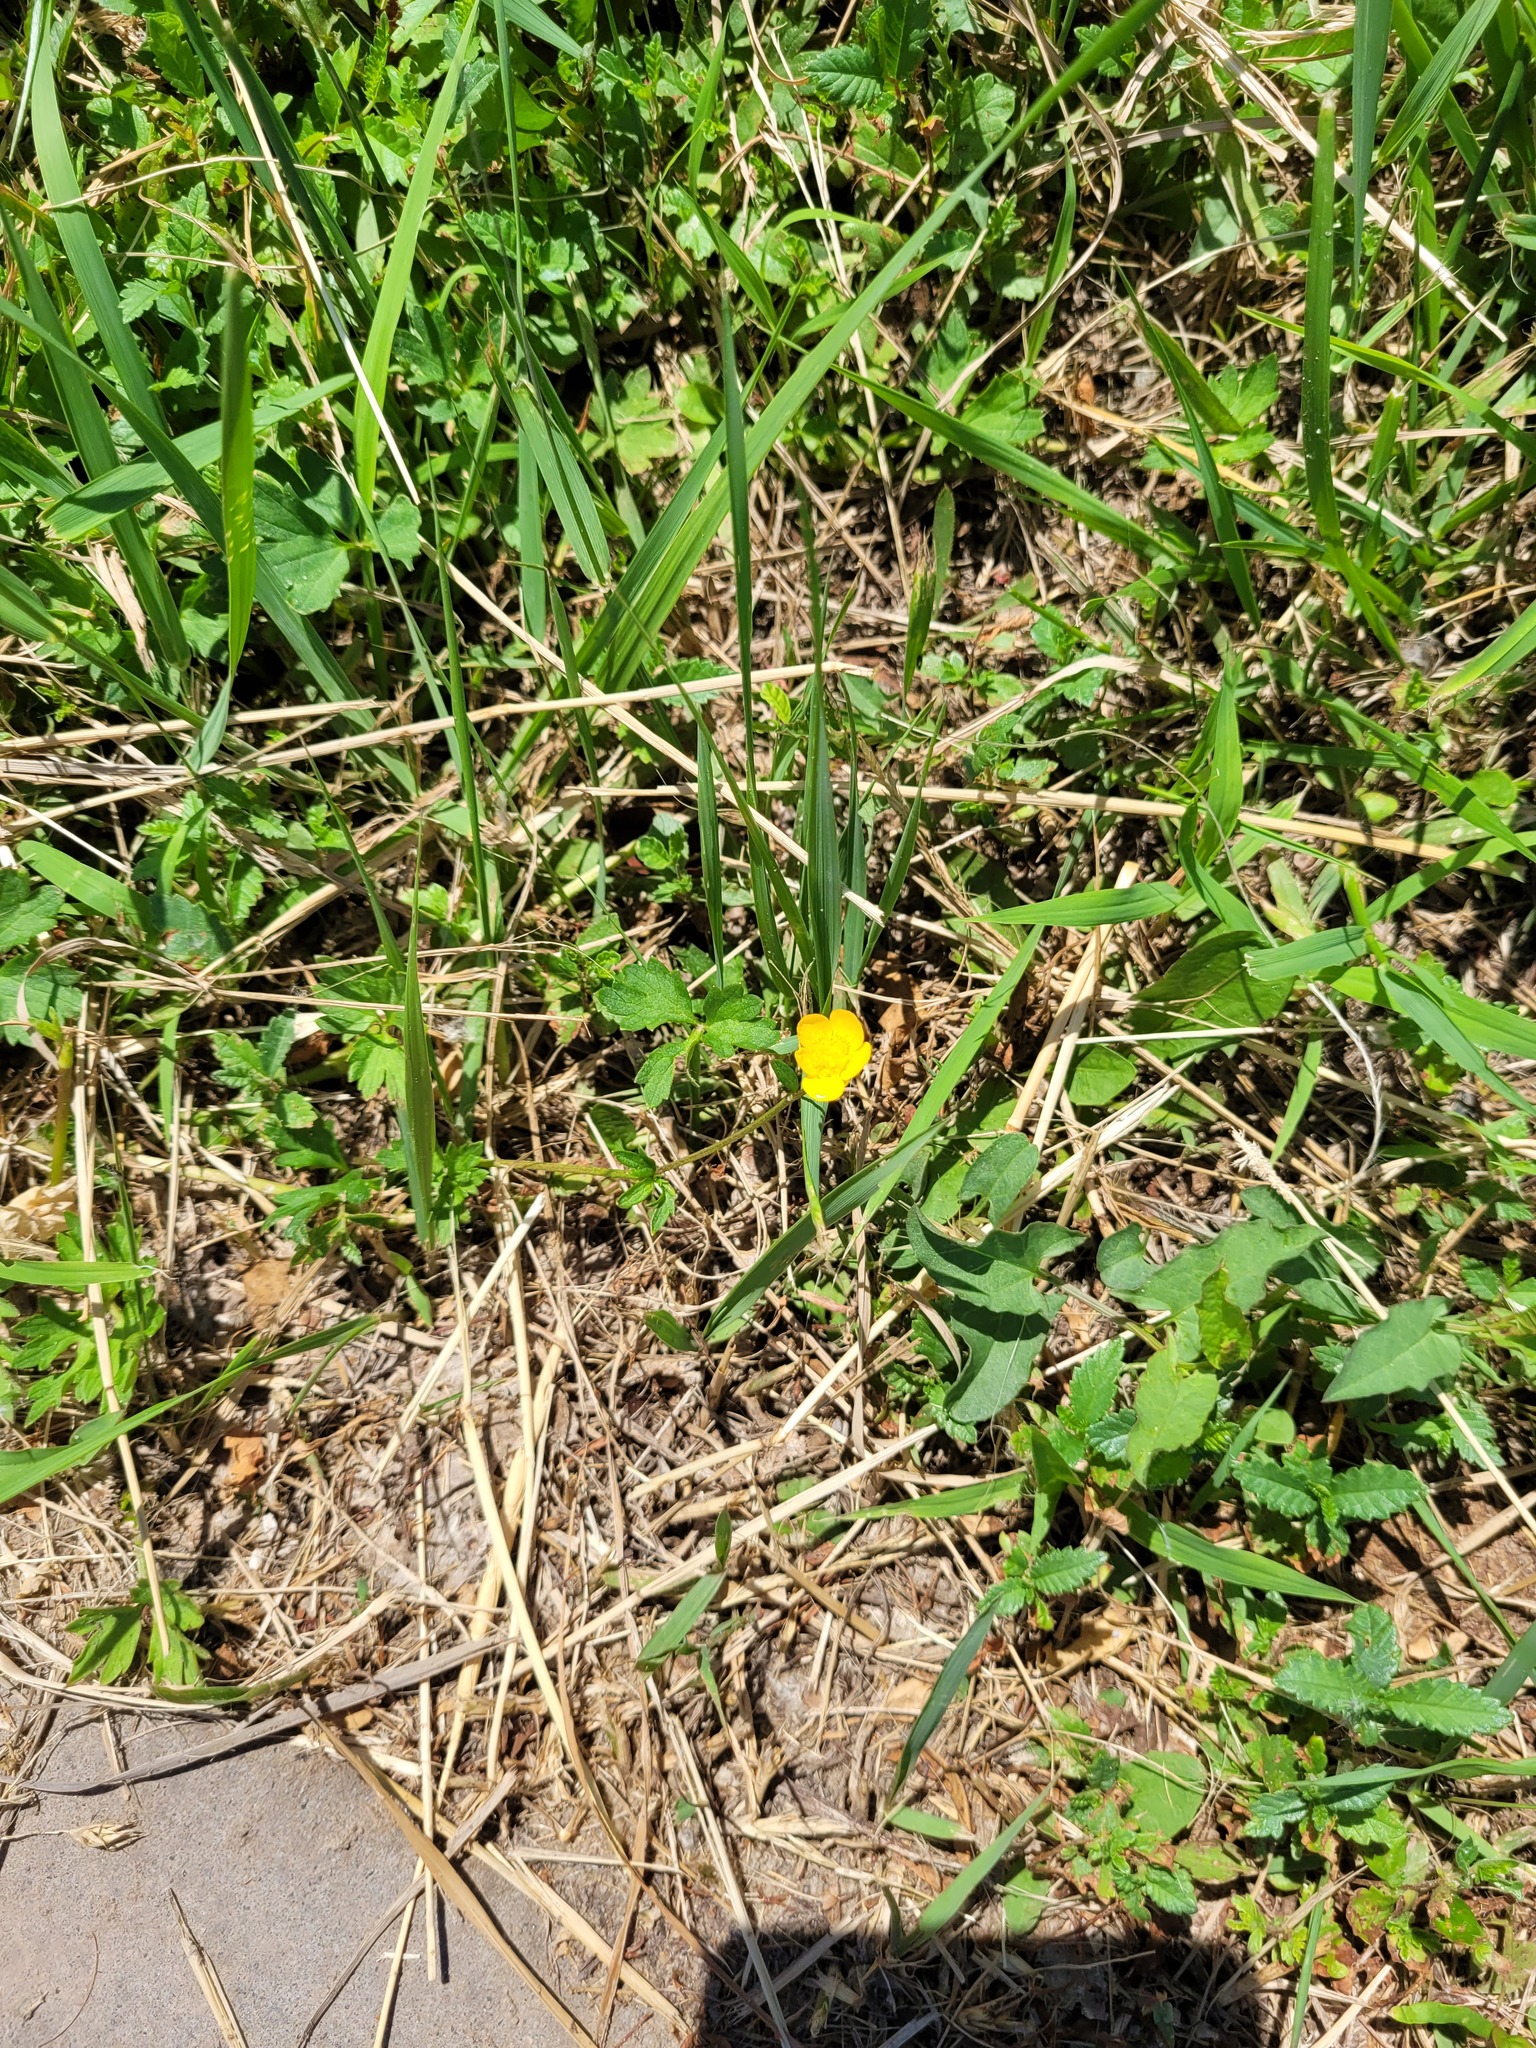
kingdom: Plantae
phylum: Tracheophyta
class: Magnoliopsida
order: Ranunculales
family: Ranunculaceae
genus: Ranunculus
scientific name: Ranunculus repens
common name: Creeping buttercup
